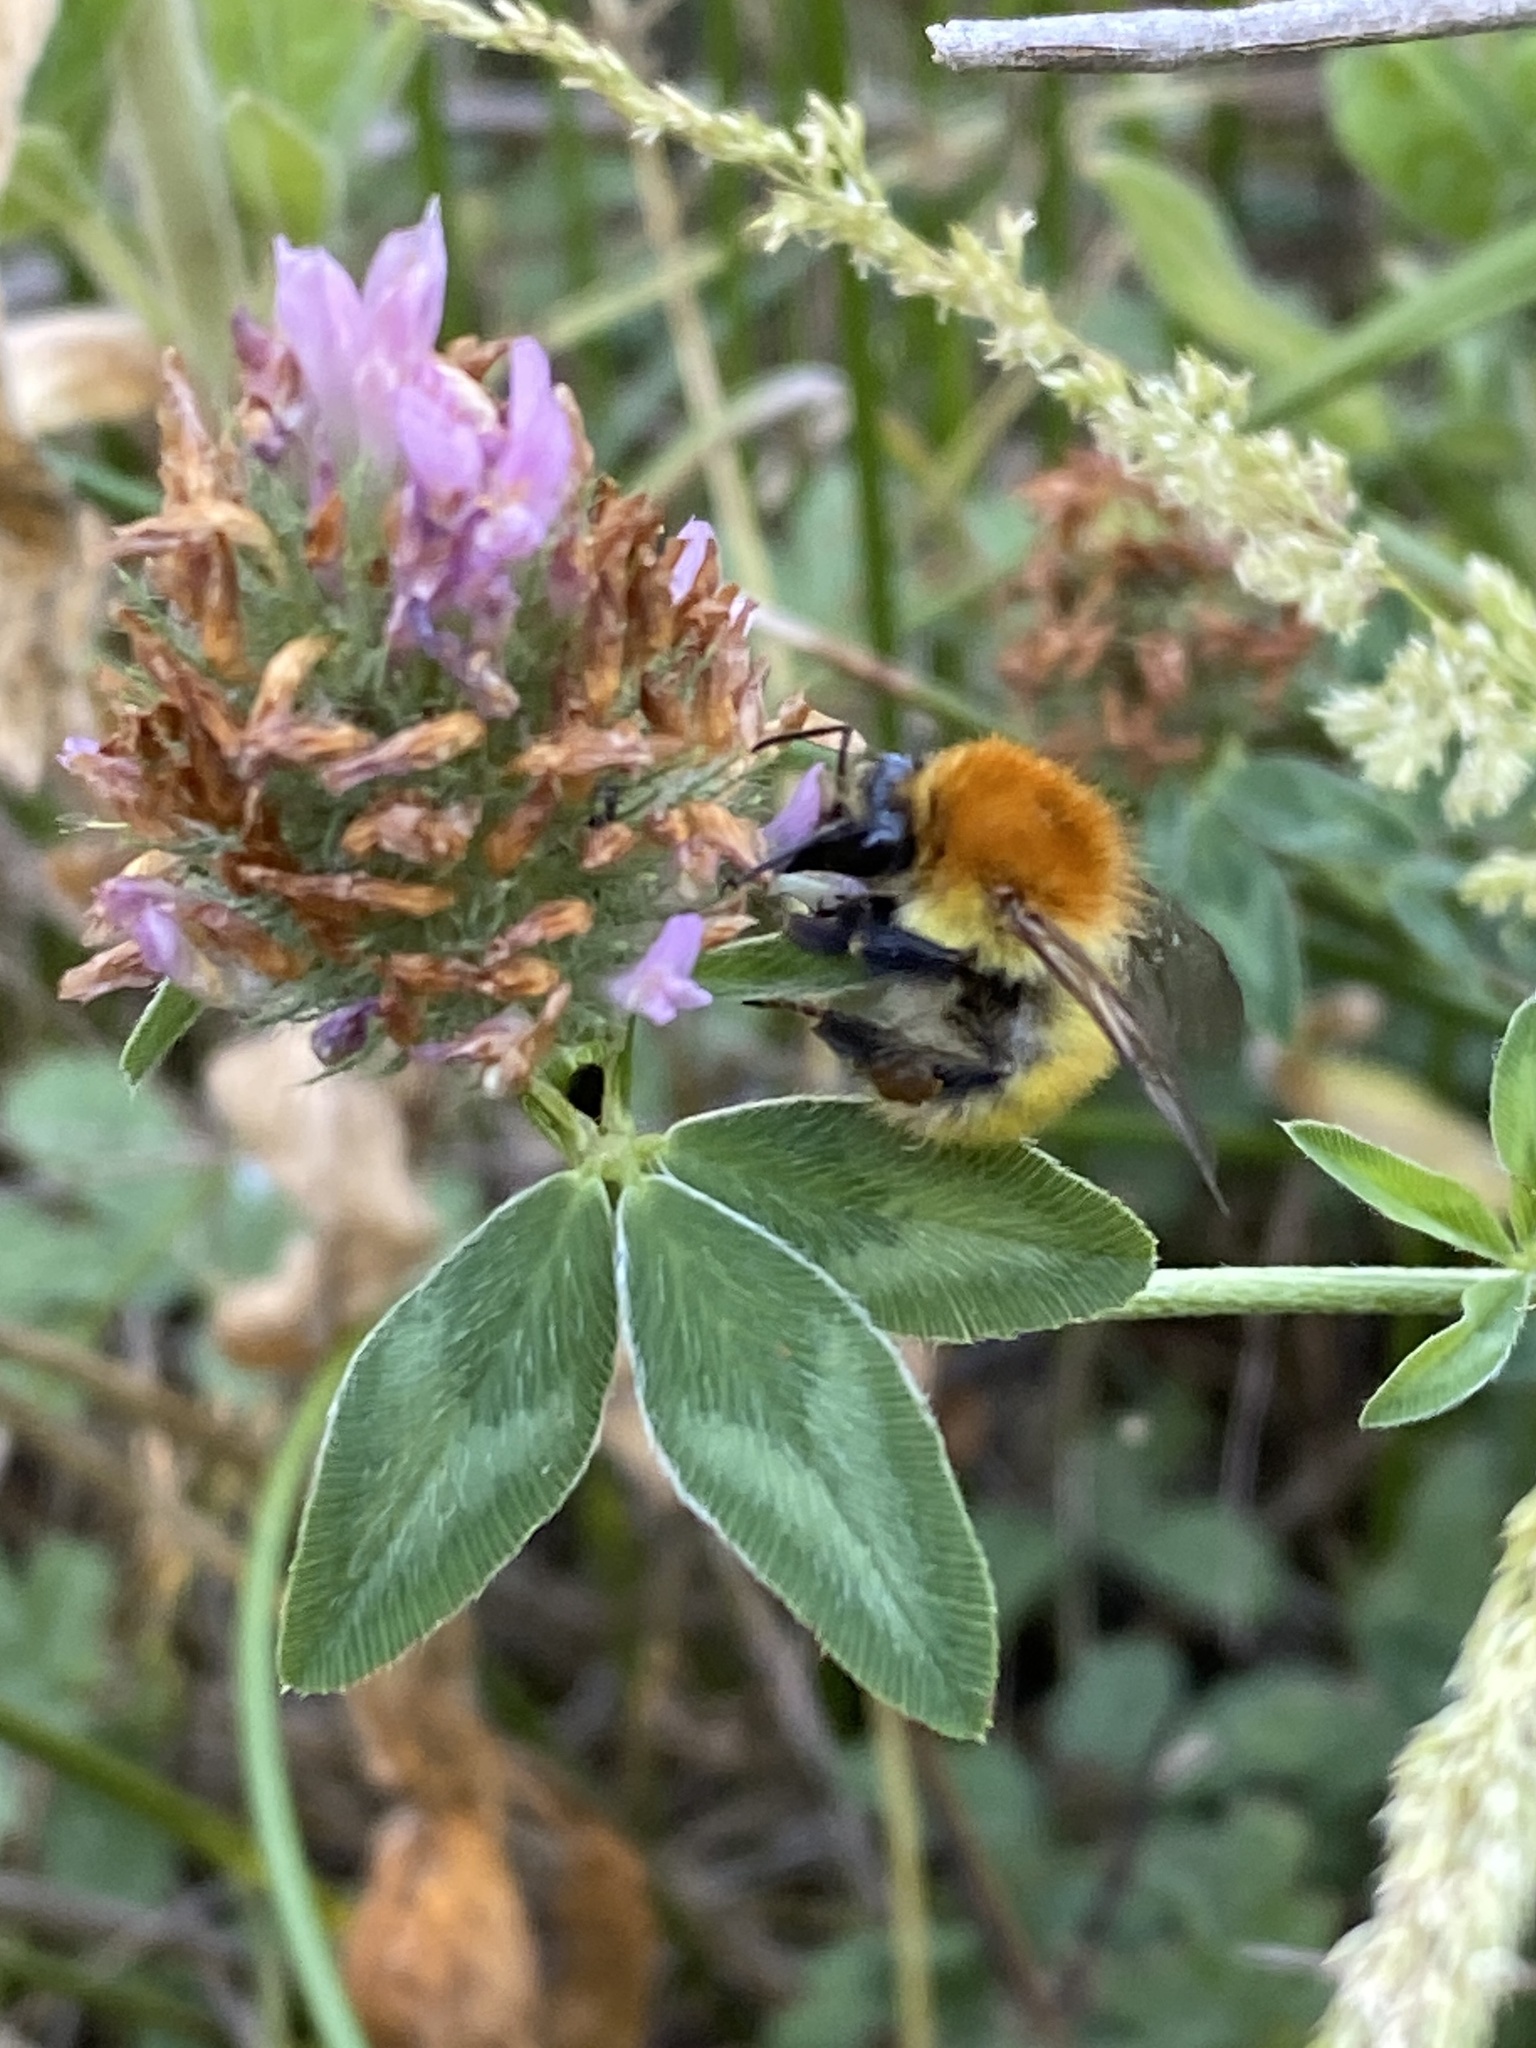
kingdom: Animalia
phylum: Arthropoda
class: Insecta
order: Hymenoptera
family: Apidae
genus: Bombus
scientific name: Bombus pascuorum
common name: Common carder bee
